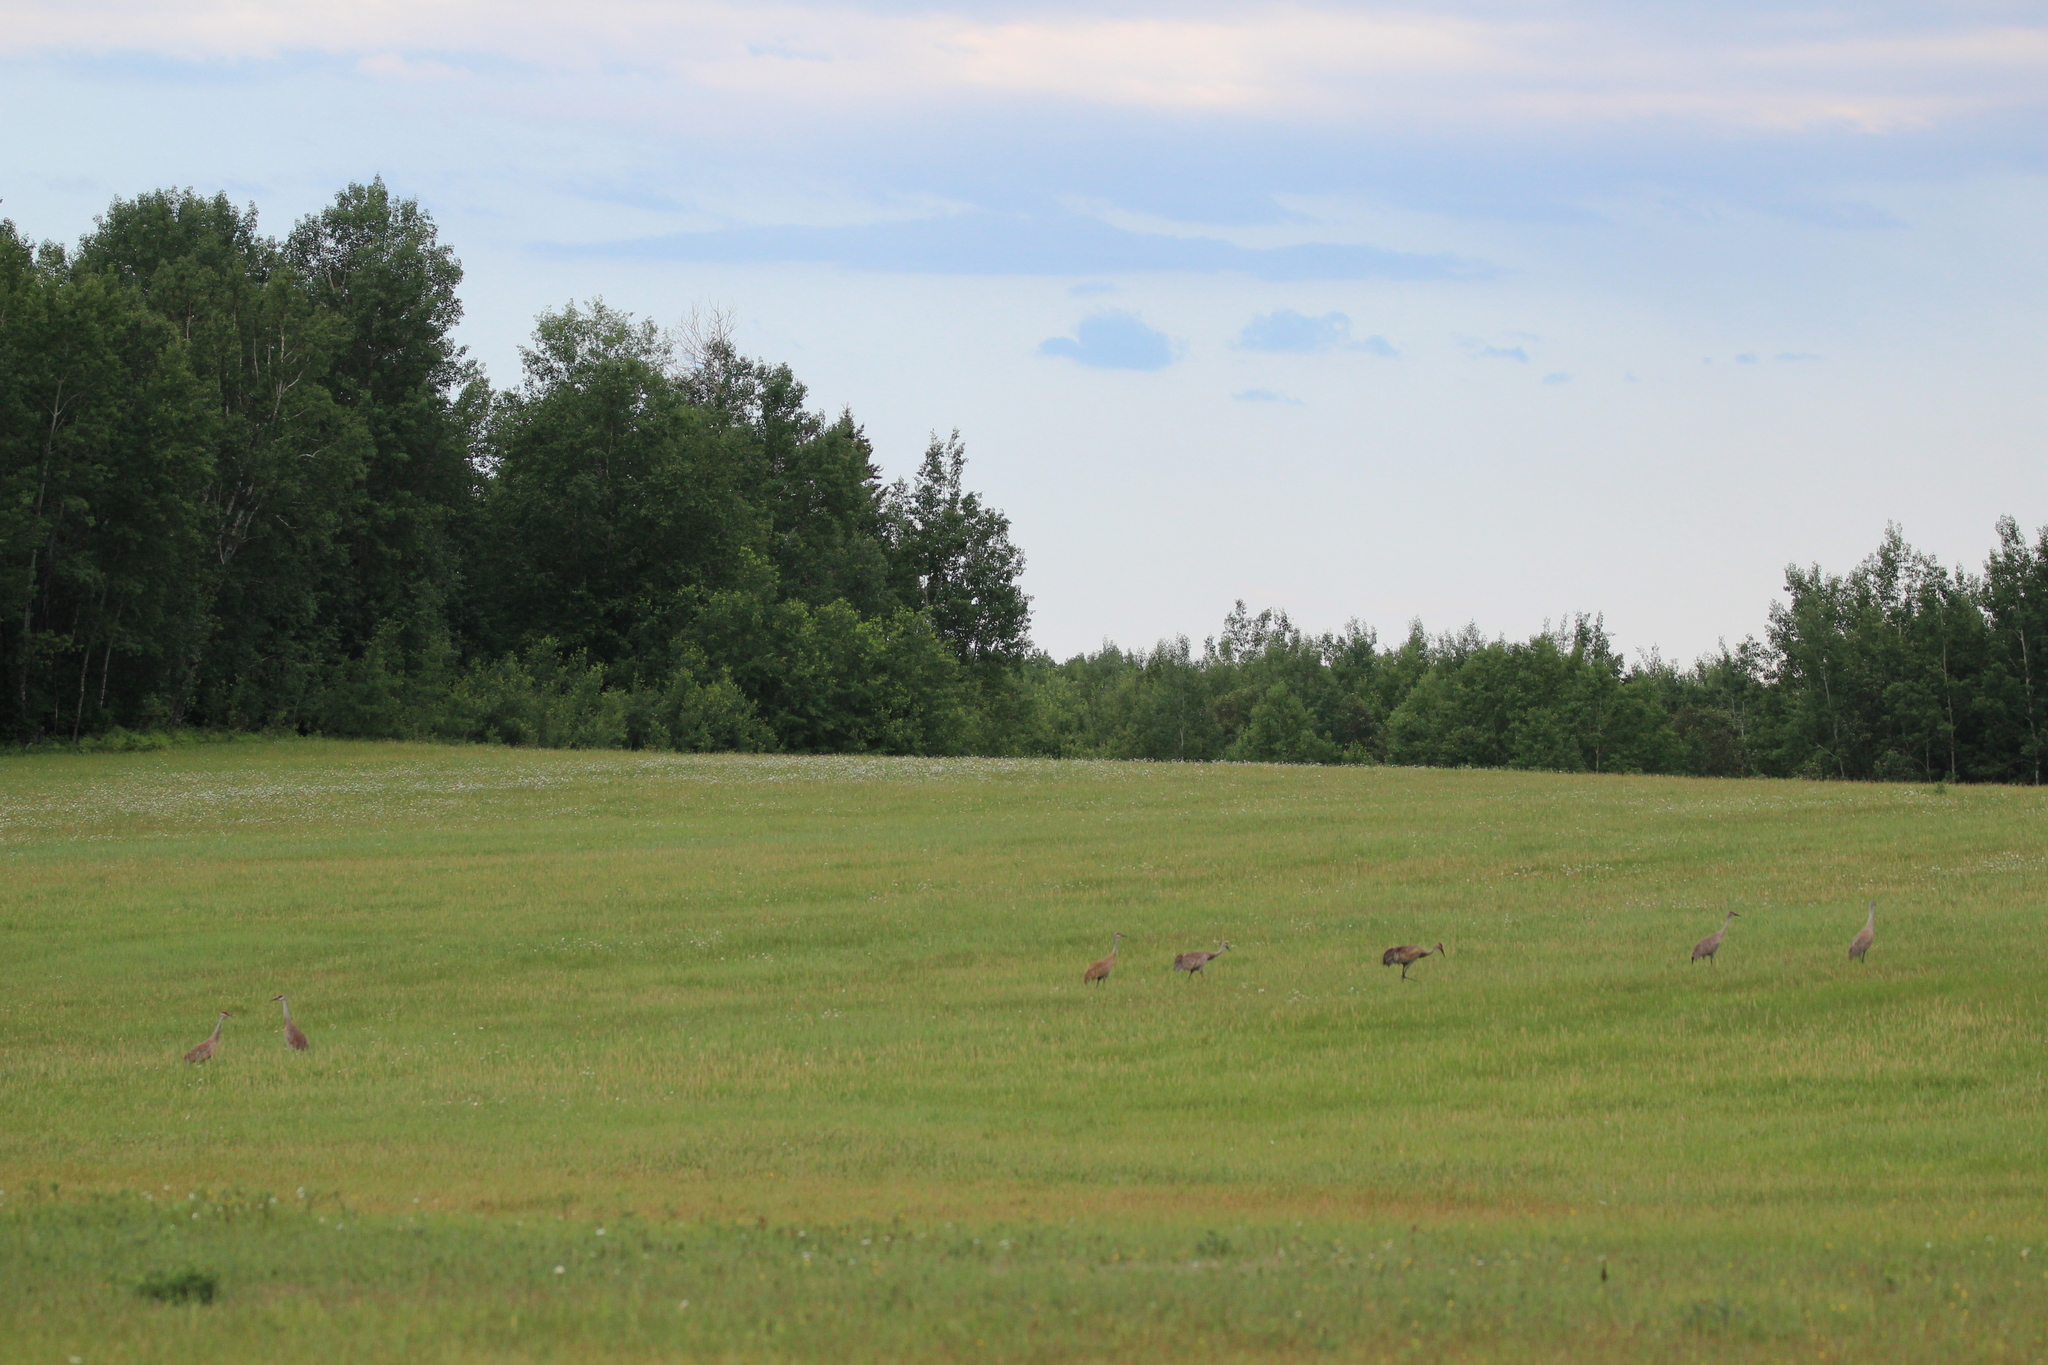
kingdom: Animalia
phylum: Chordata
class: Aves
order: Gruiformes
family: Gruidae
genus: Grus
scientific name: Grus canadensis
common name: Sandhill crane
